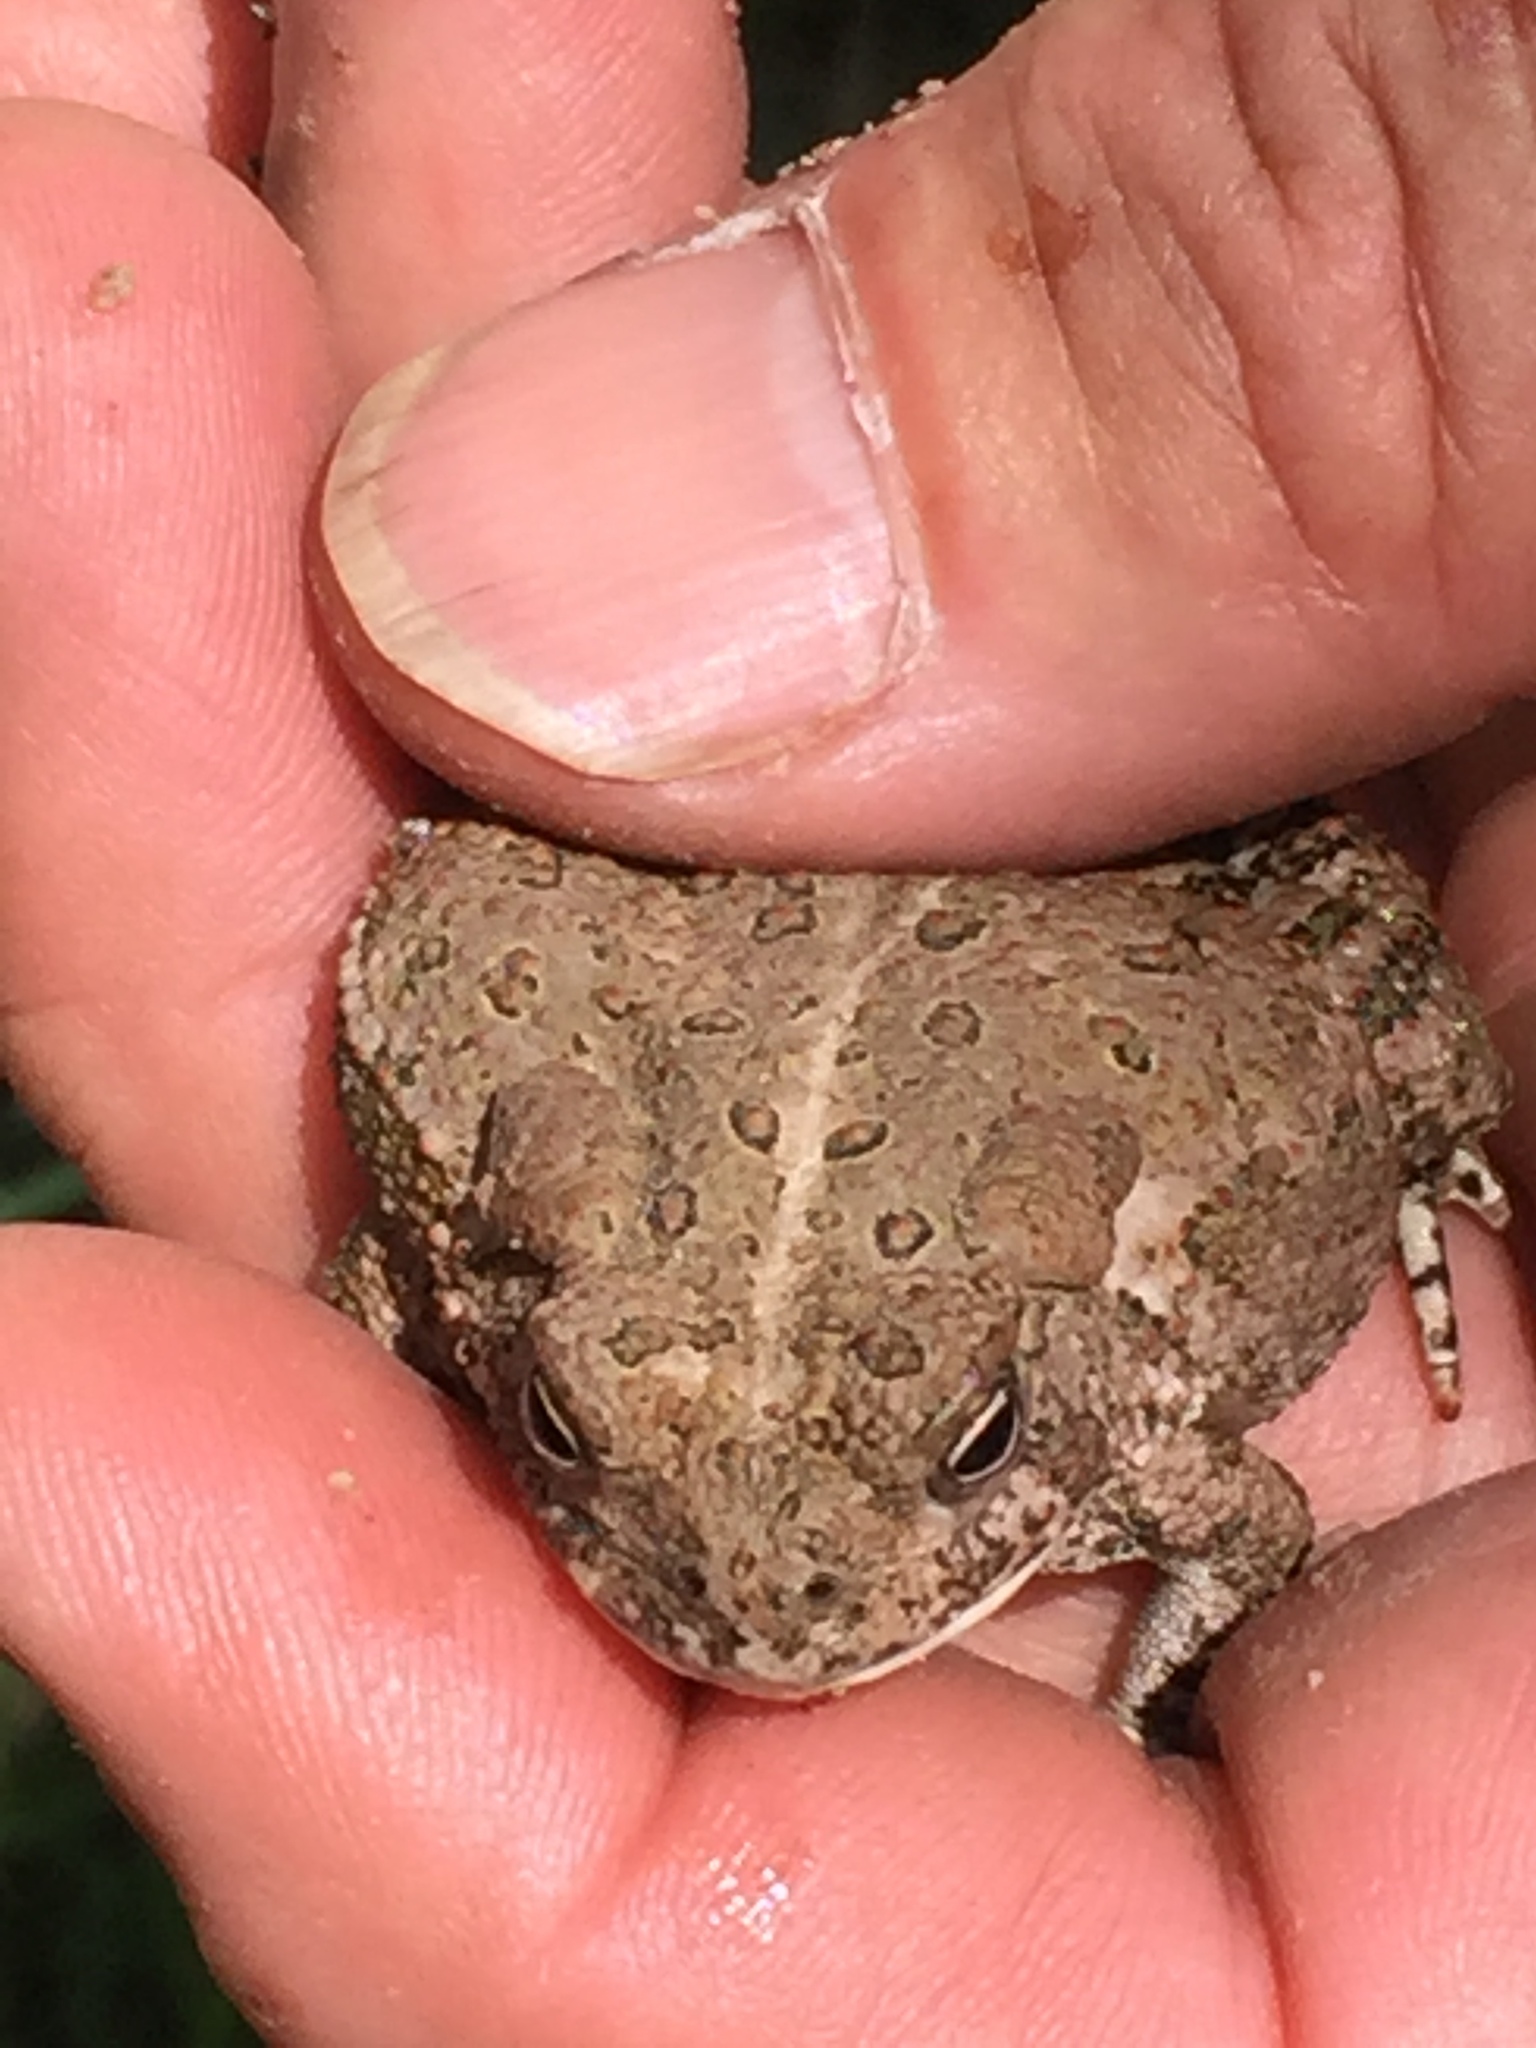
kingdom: Animalia
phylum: Chordata
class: Amphibia
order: Anura
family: Bufonidae
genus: Anaxyrus
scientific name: Anaxyrus woodhousii
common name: Woodhouse's toad
